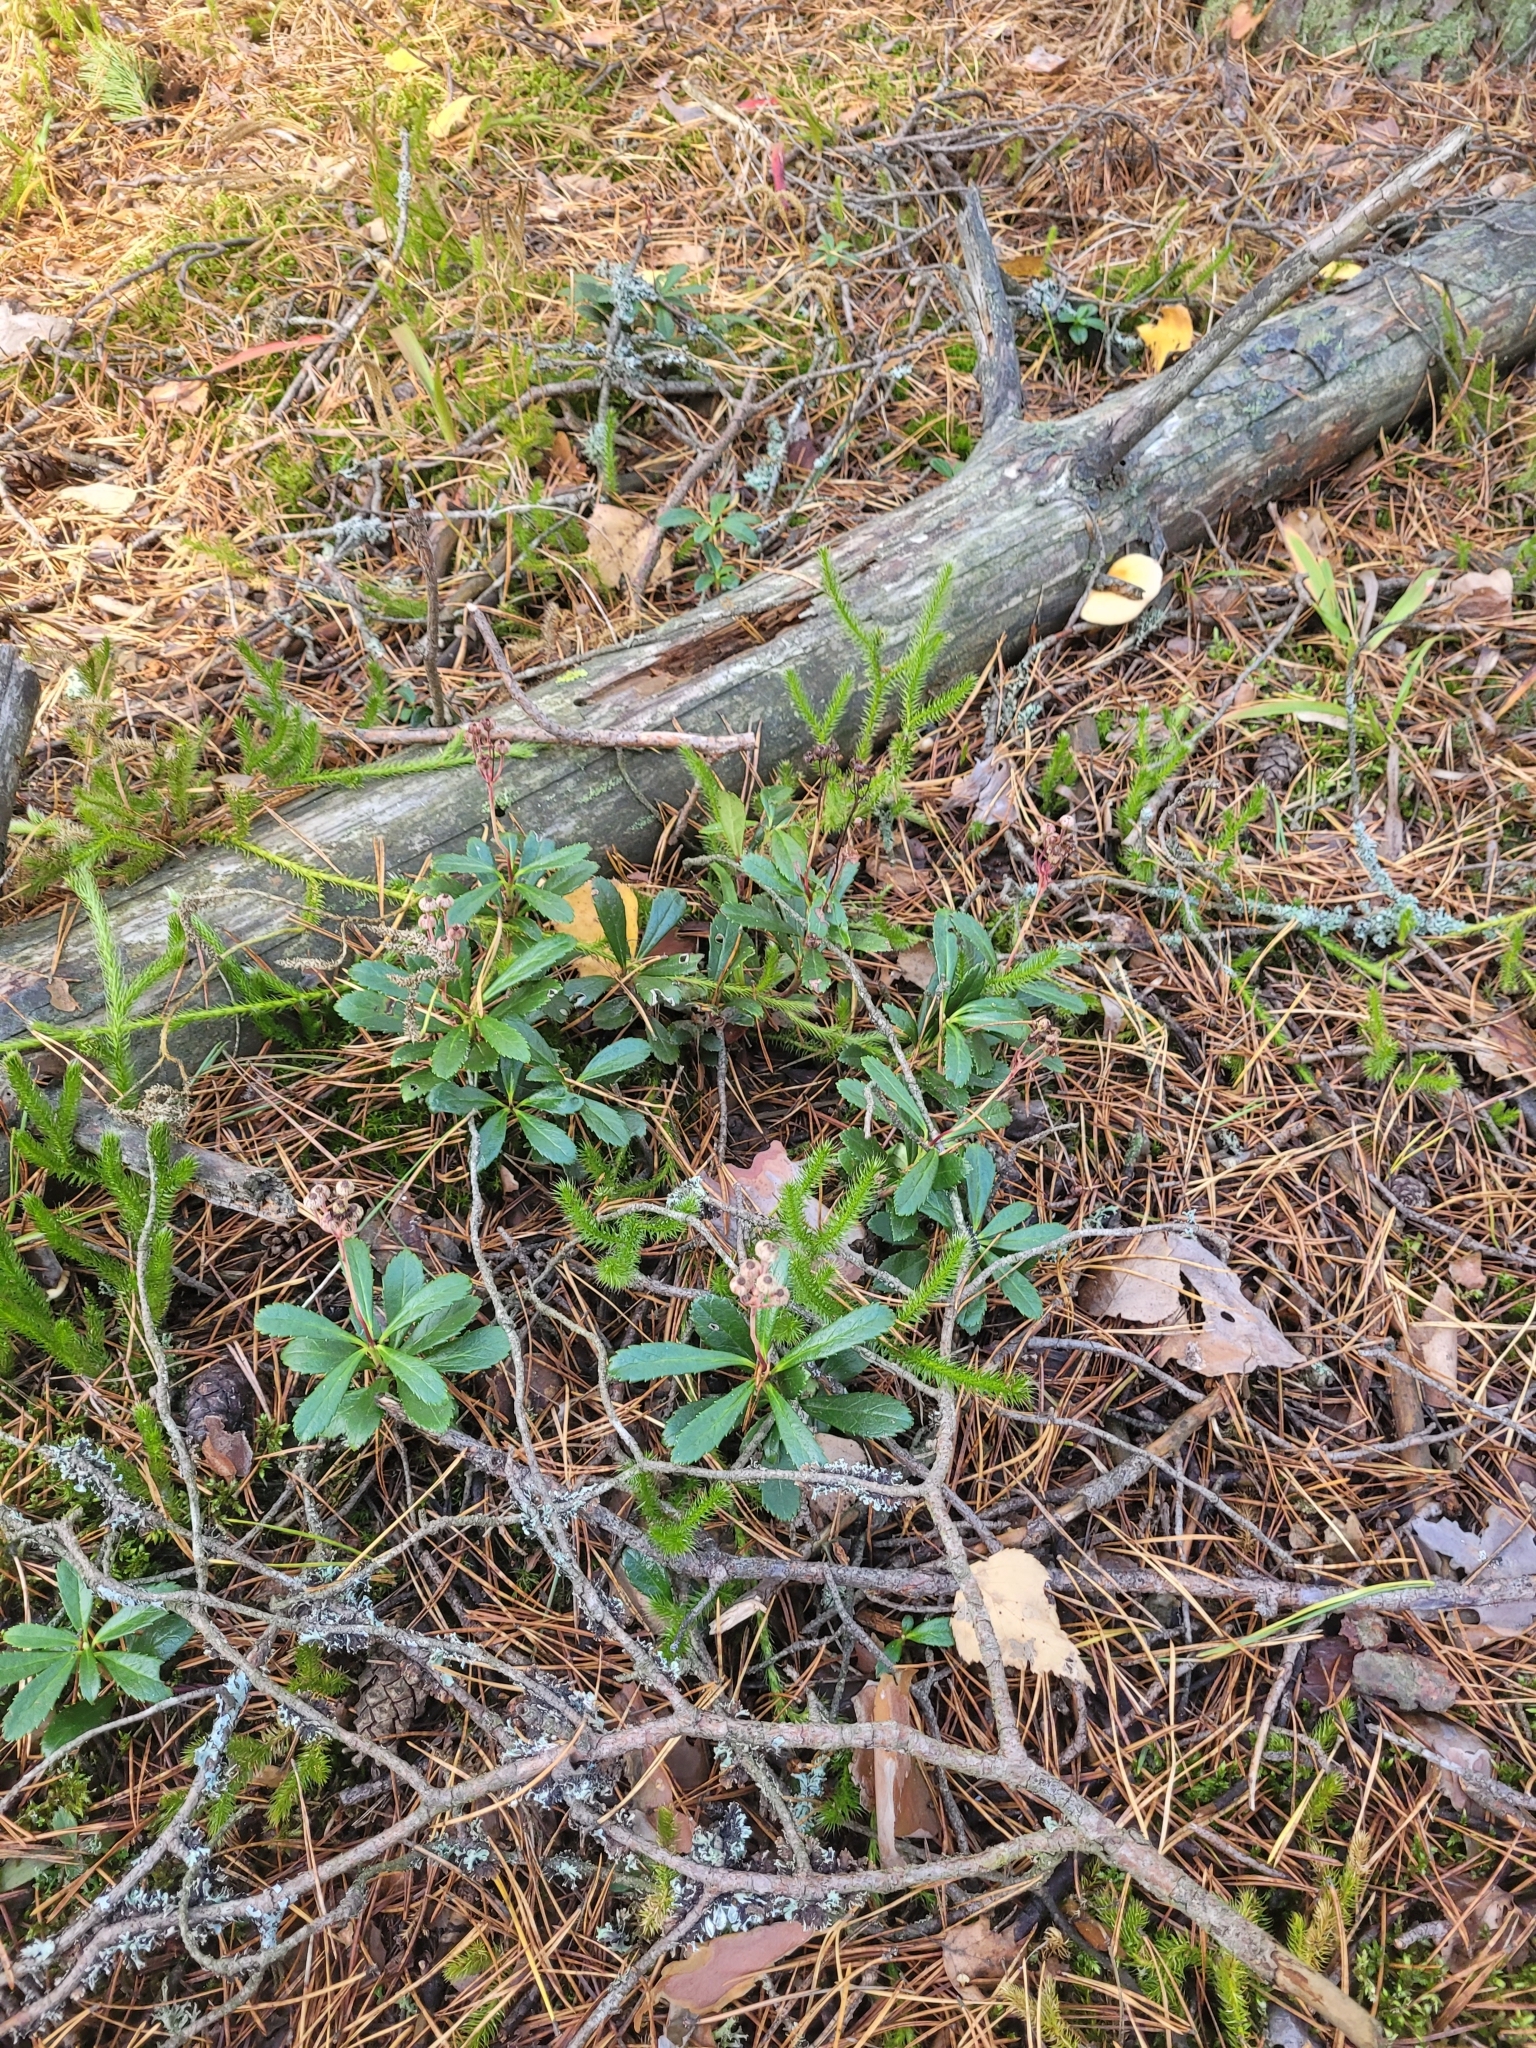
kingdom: Plantae
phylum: Tracheophyta
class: Magnoliopsida
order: Ericales
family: Ericaceae
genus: Chimaphila
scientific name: Chimaphila umbellata
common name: Pipsissewa
